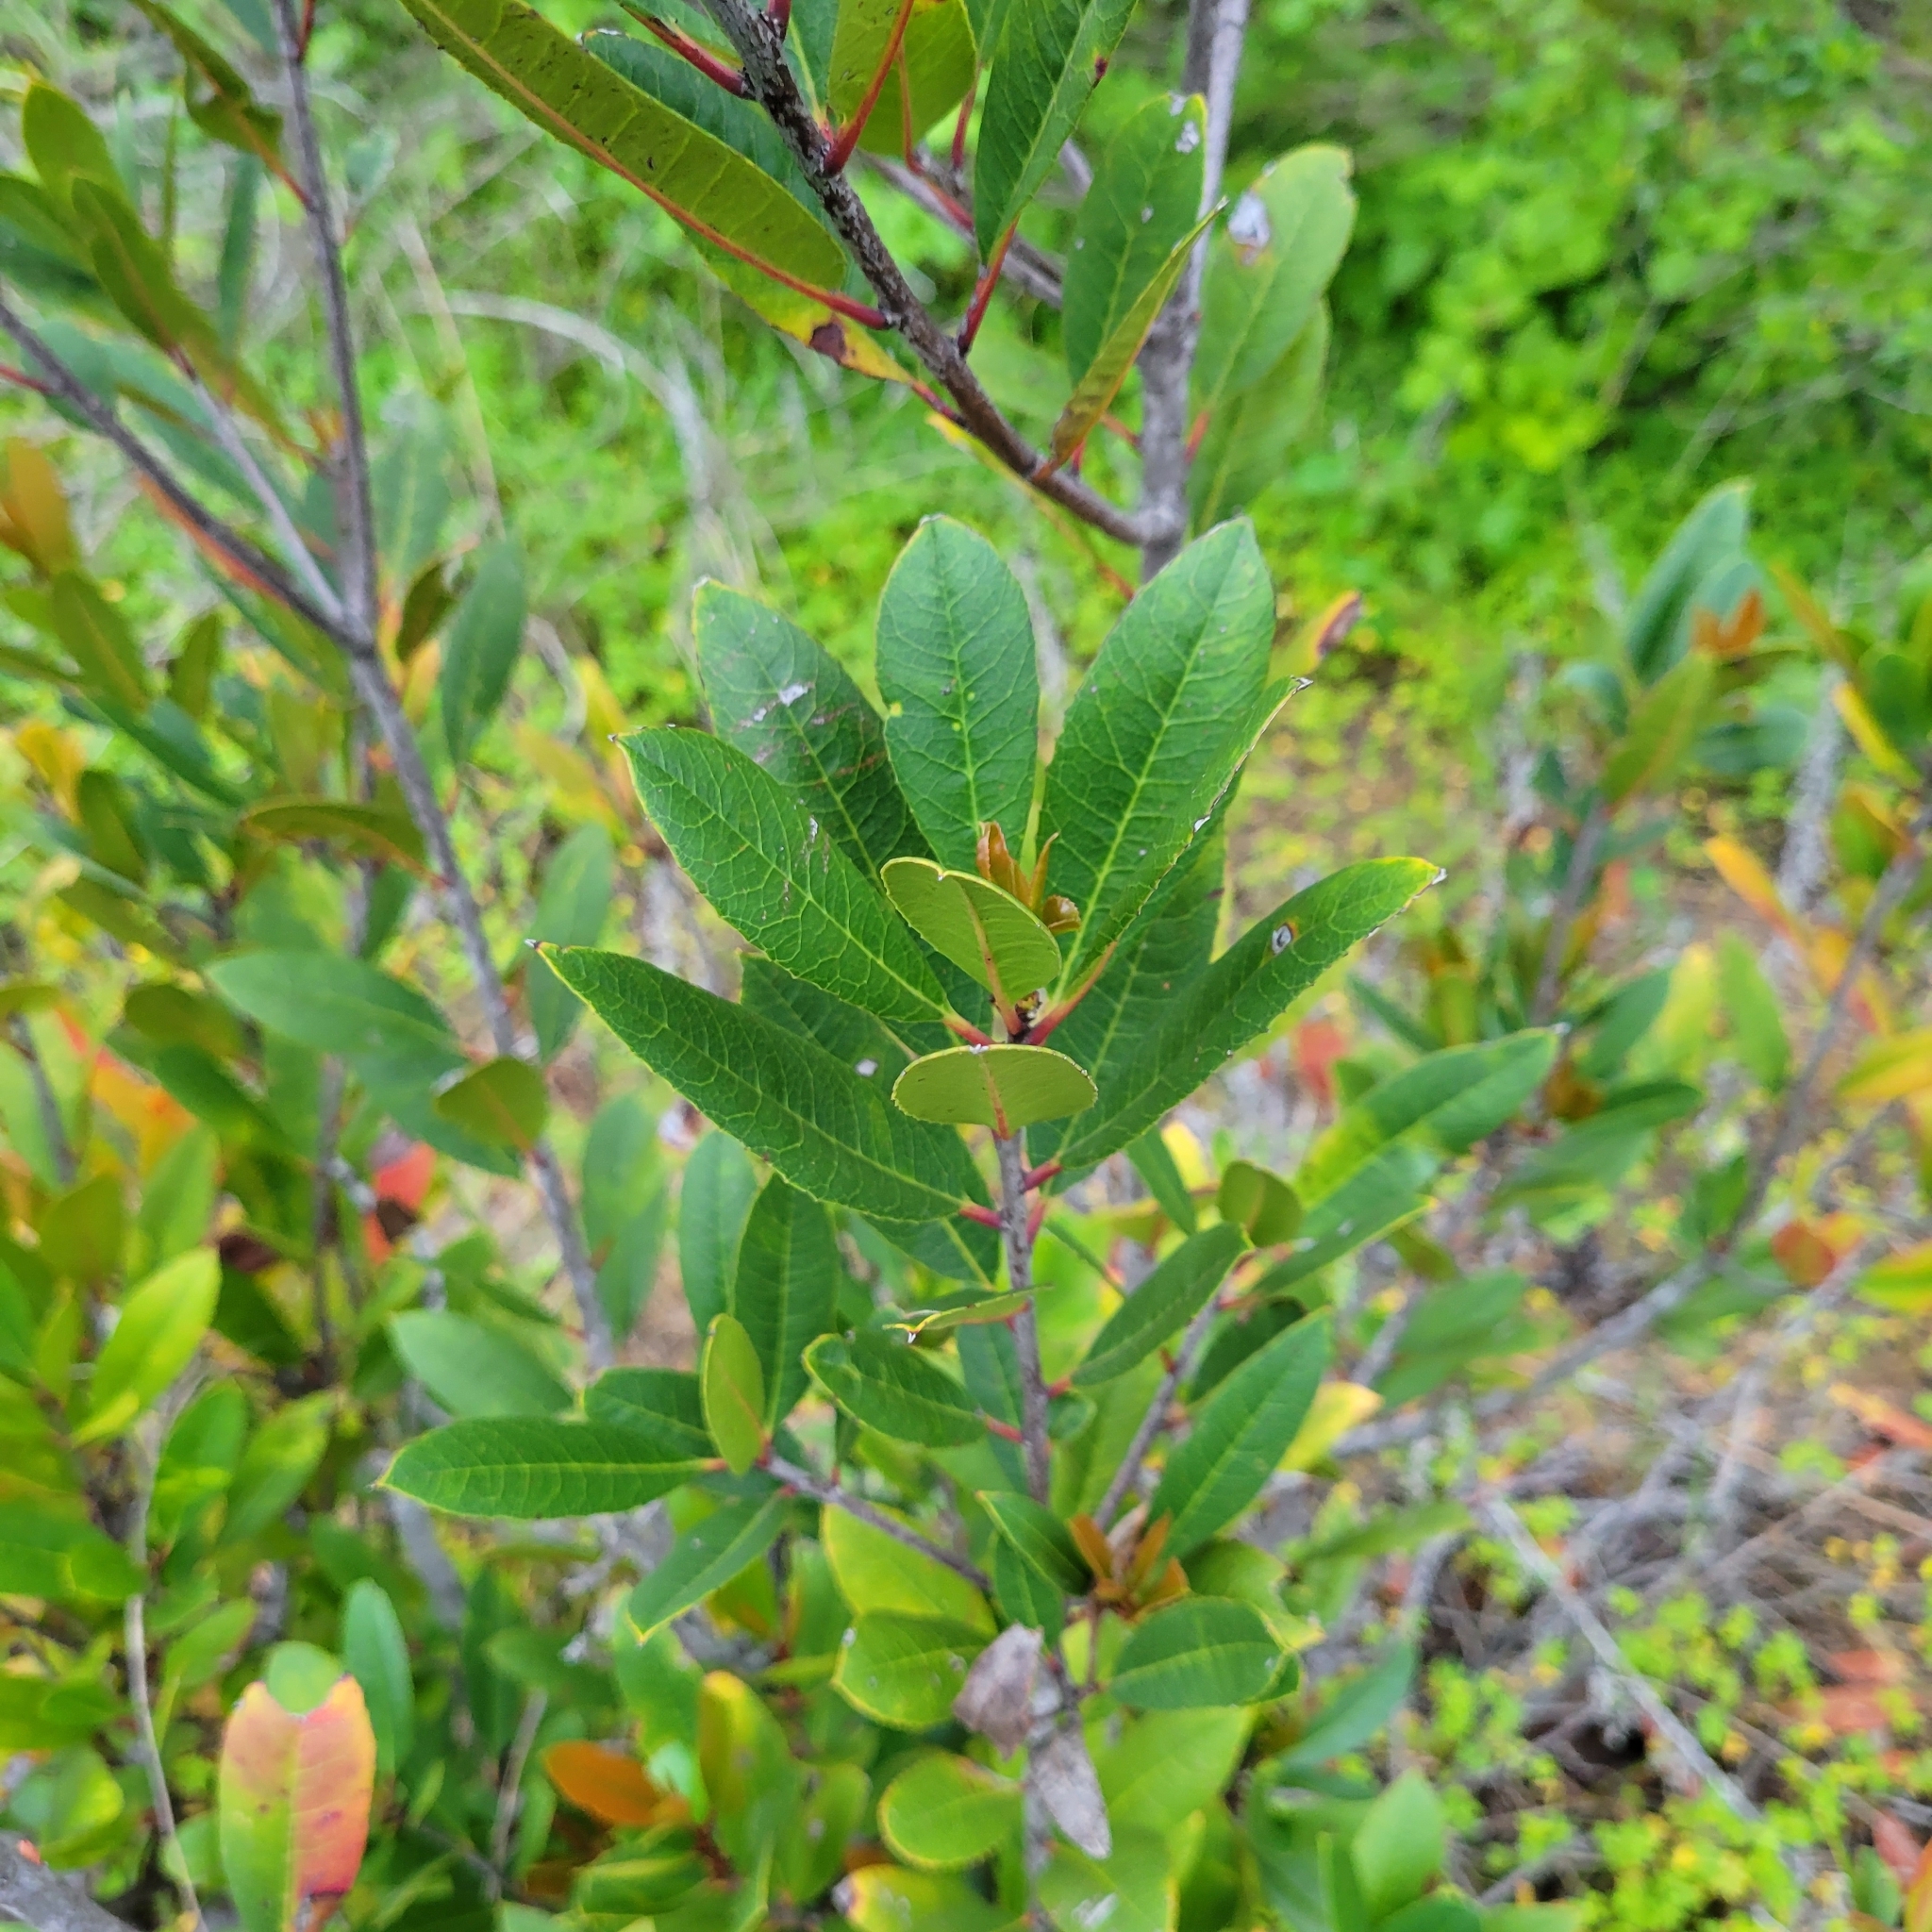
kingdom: Plantae
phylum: Tracheophyta
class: Magnoliopsida
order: Rosales
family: Rosaceae
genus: Heteromeles
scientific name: Heteromeles arbutifolia
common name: California-holly
